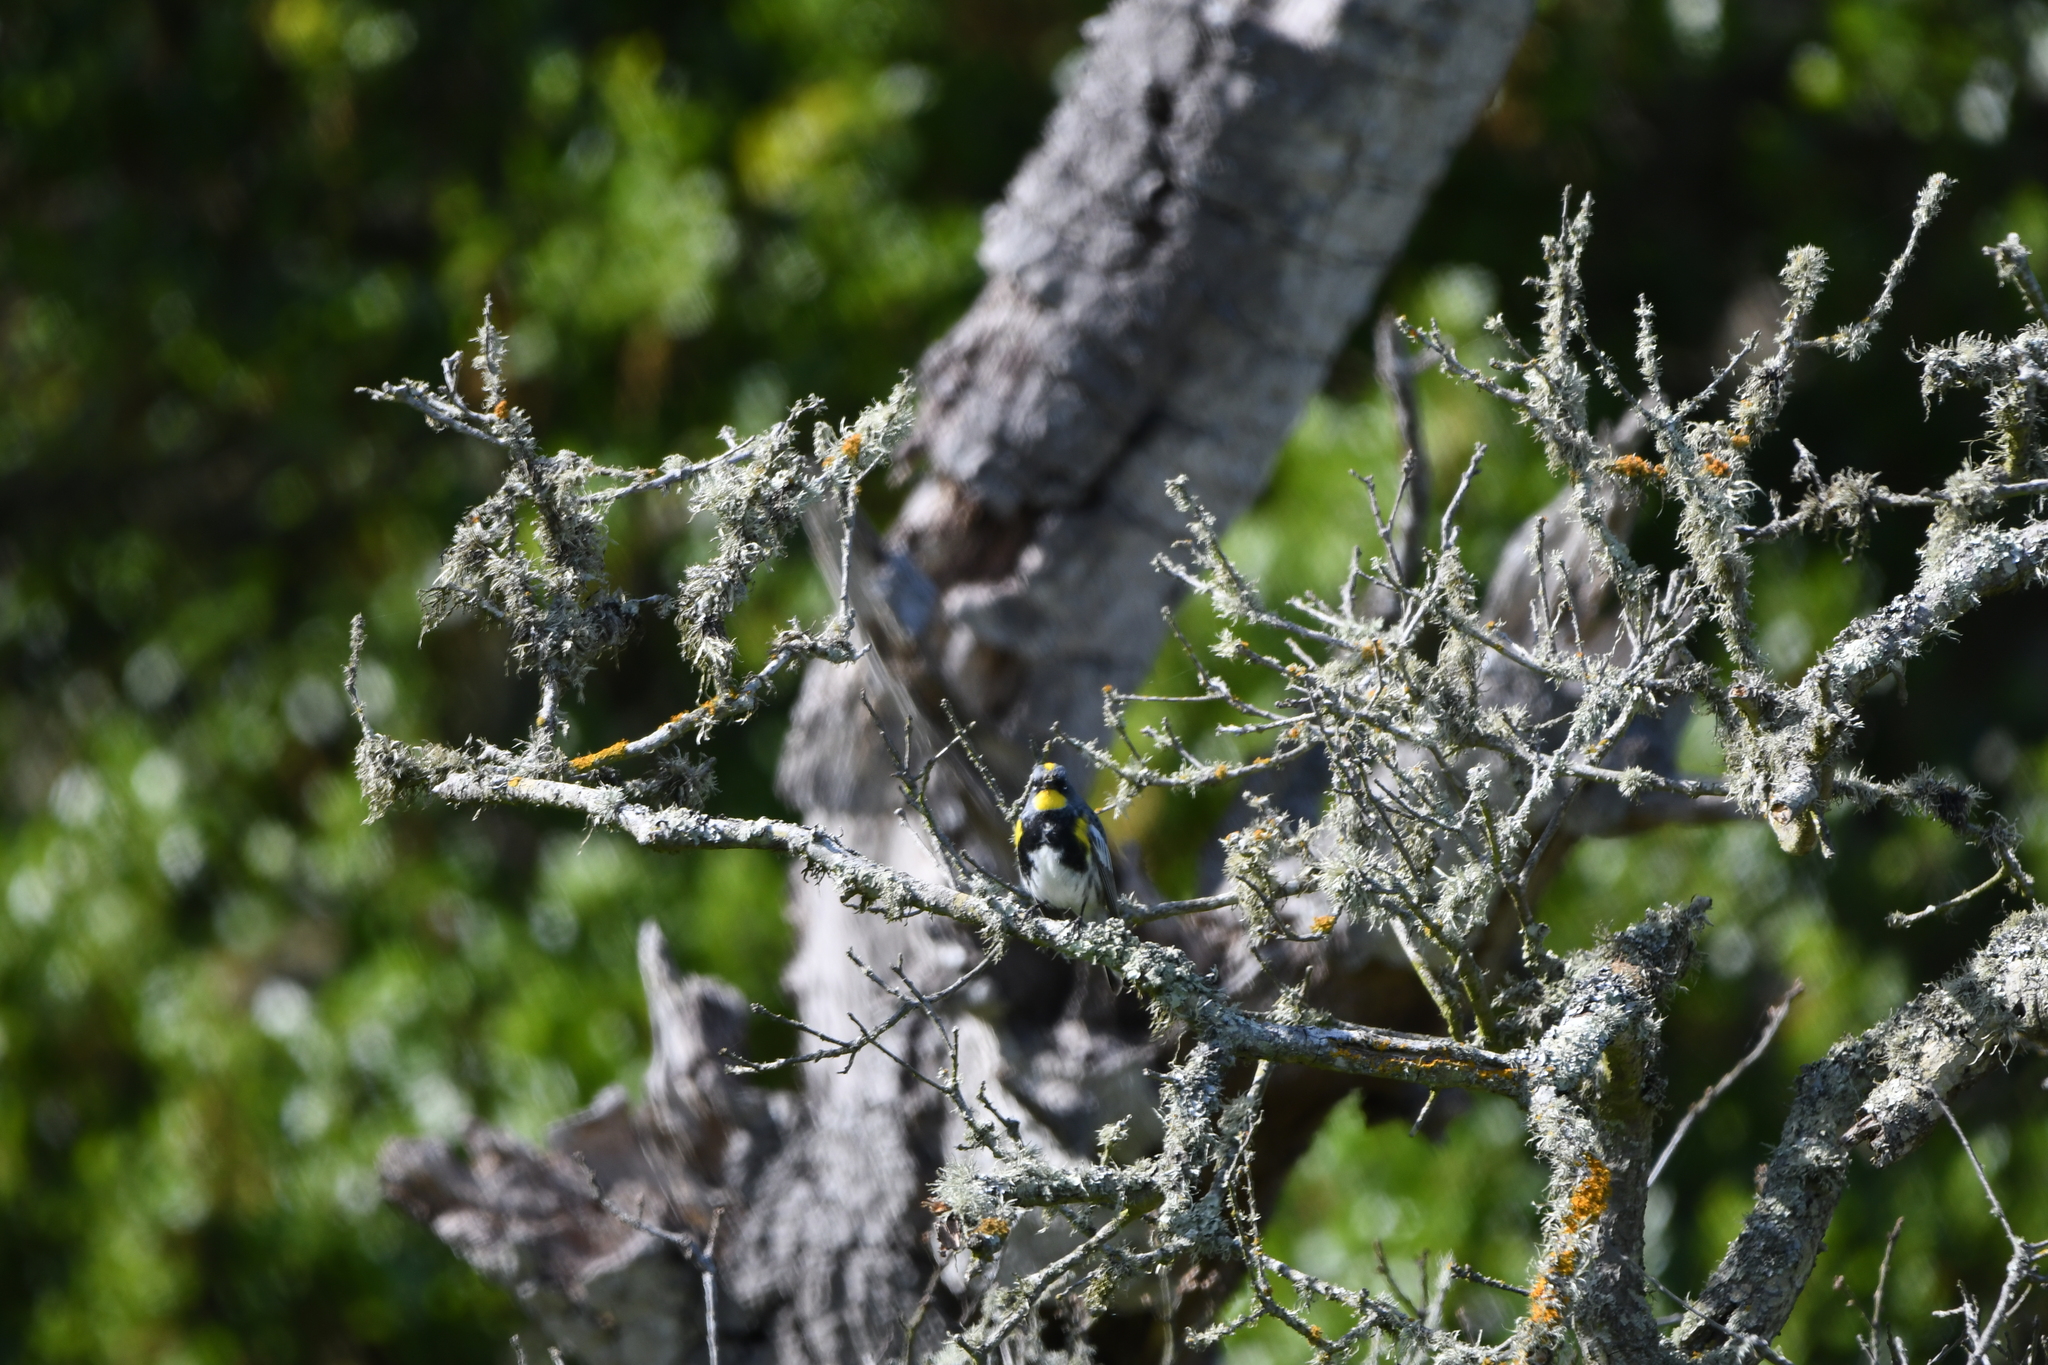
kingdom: Animalia
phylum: Chordata
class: Aves
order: Passeriformes
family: Parulidae
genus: Setophaga
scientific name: Setophaga auduboni
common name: Audubon's warbler
